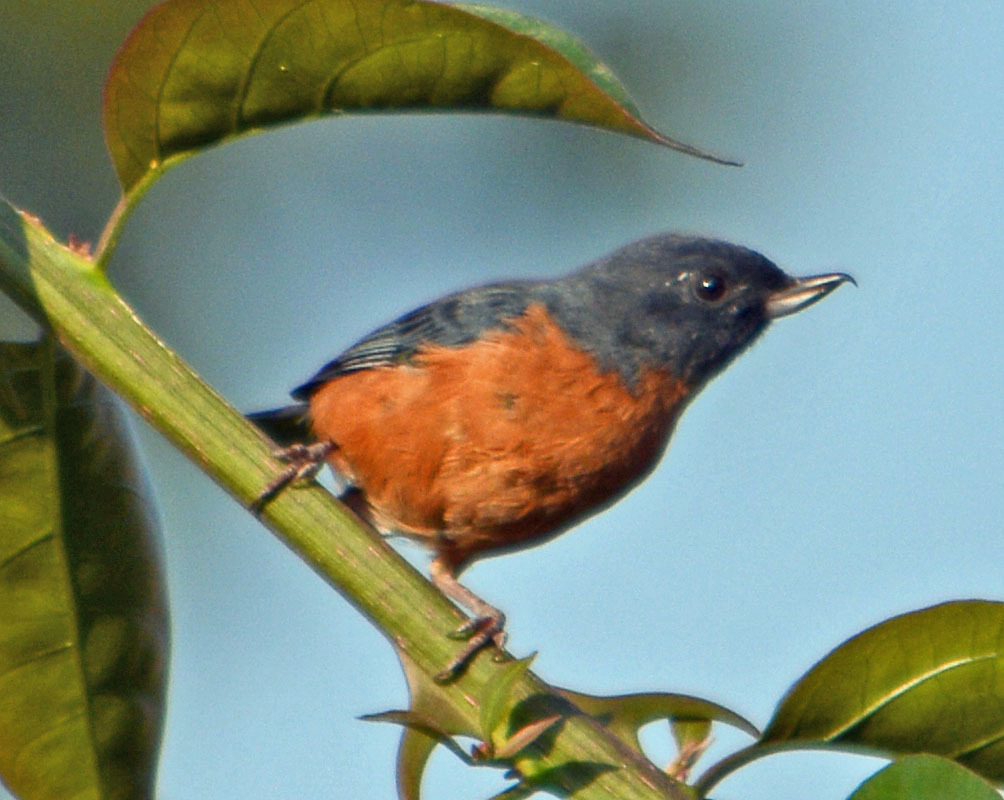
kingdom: Animalia
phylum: Chordata
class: Aves
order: Passeriformes
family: Thraupidae
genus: Diglossa
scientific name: Diglossa baritula
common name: Cinnamon-bellied flowerpiercer
